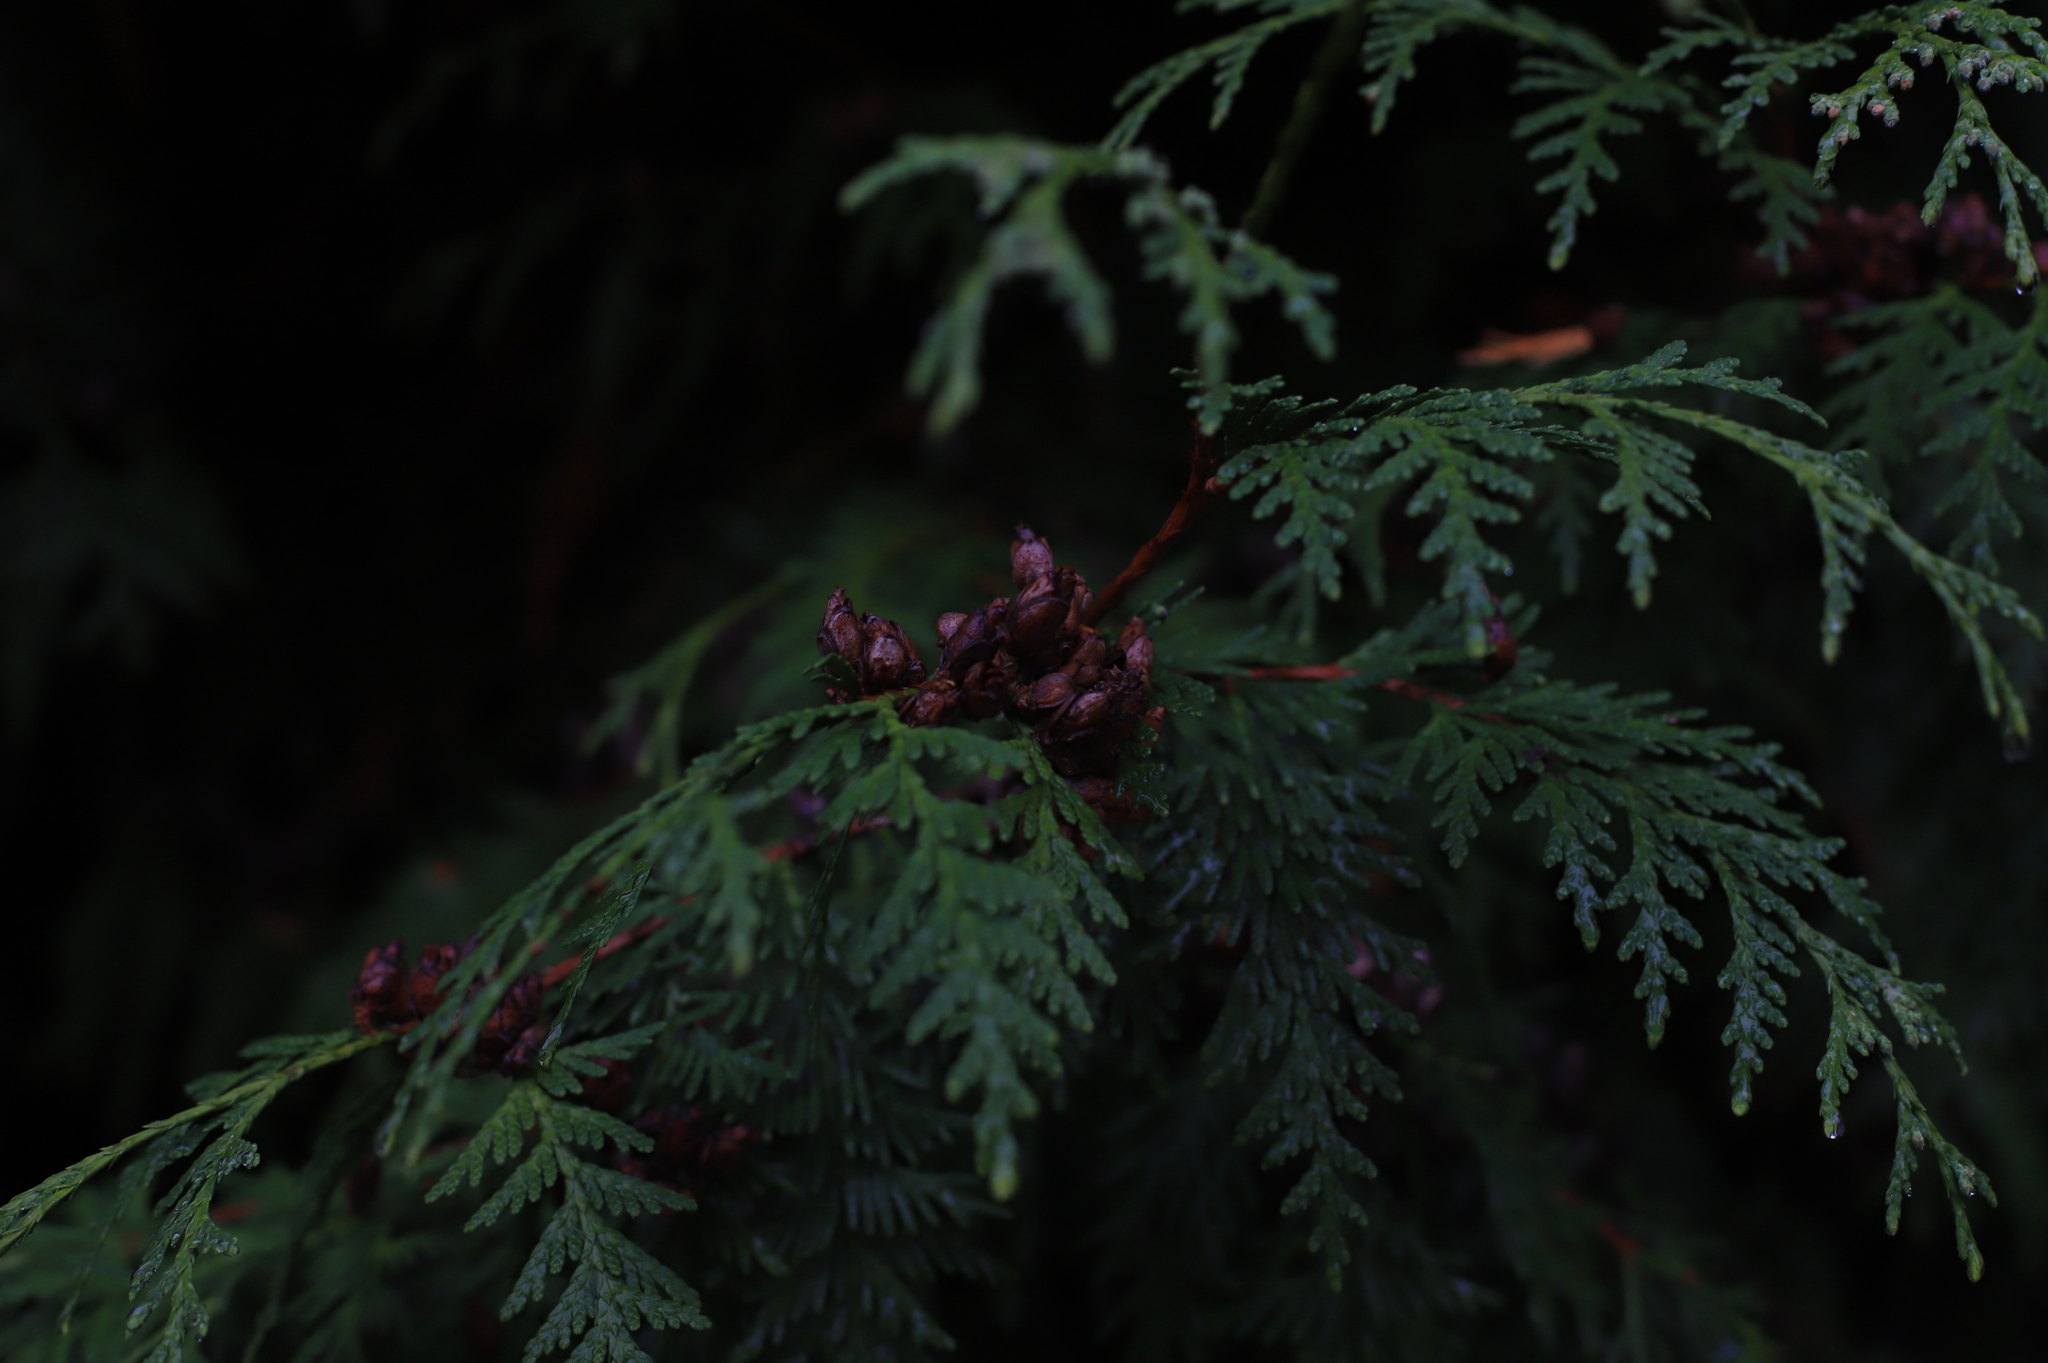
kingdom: Plantae
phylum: Tracheophyta
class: Pinopsida
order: Pinales
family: Cupressaceae
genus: Thuja
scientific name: Thuja plicata
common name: Western red-cedar
